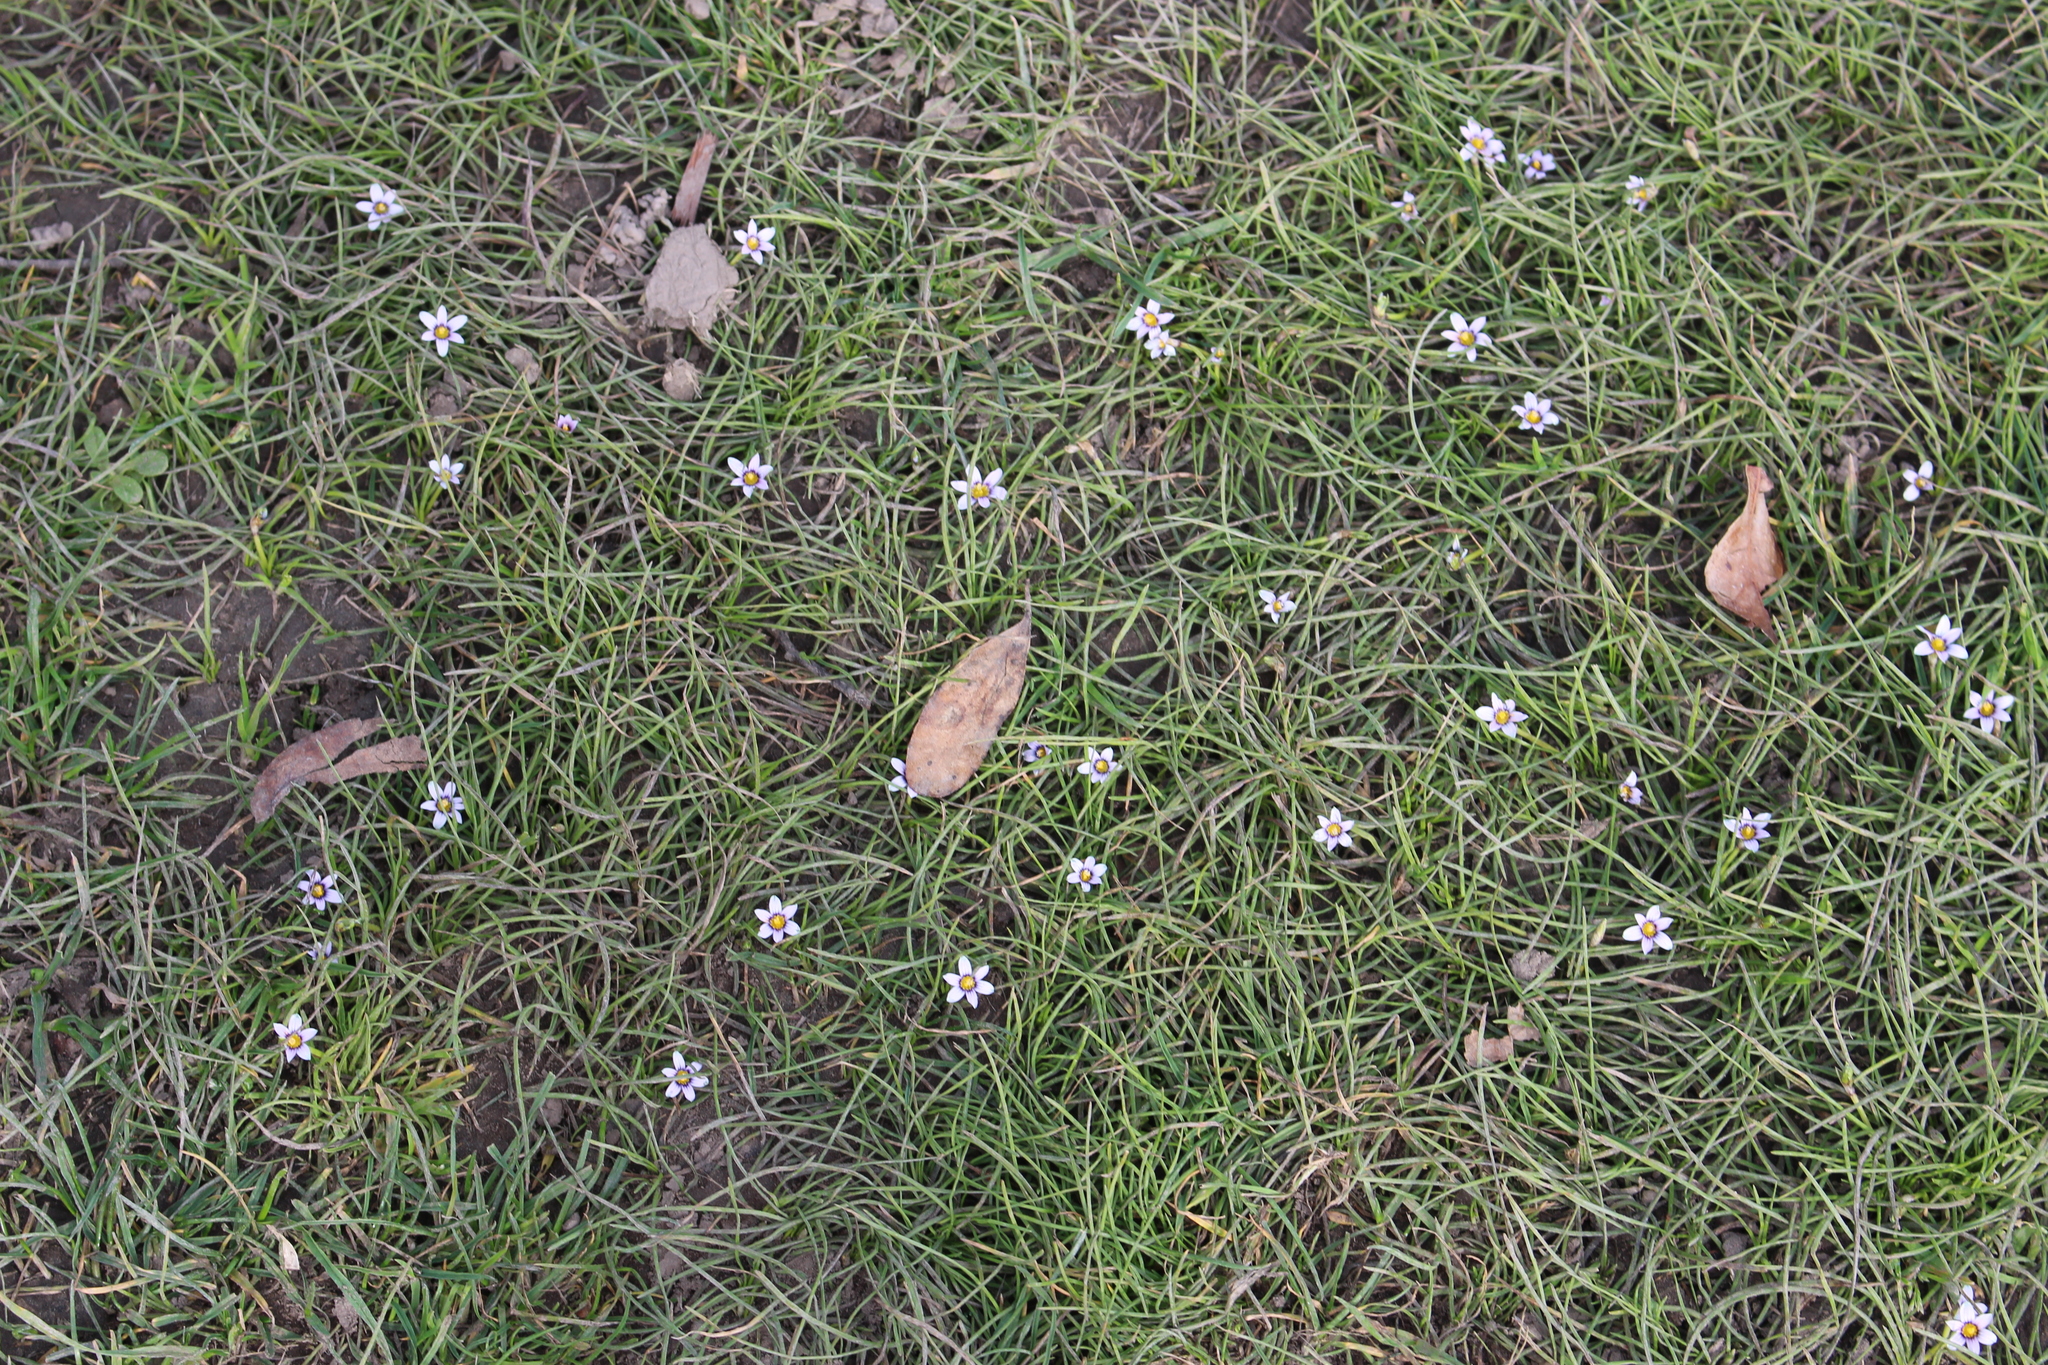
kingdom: Plantae
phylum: Tracheophyta
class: Liliopsida
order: Asparagales
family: Iridaceae
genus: Romulea
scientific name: Romulea minutiflora
